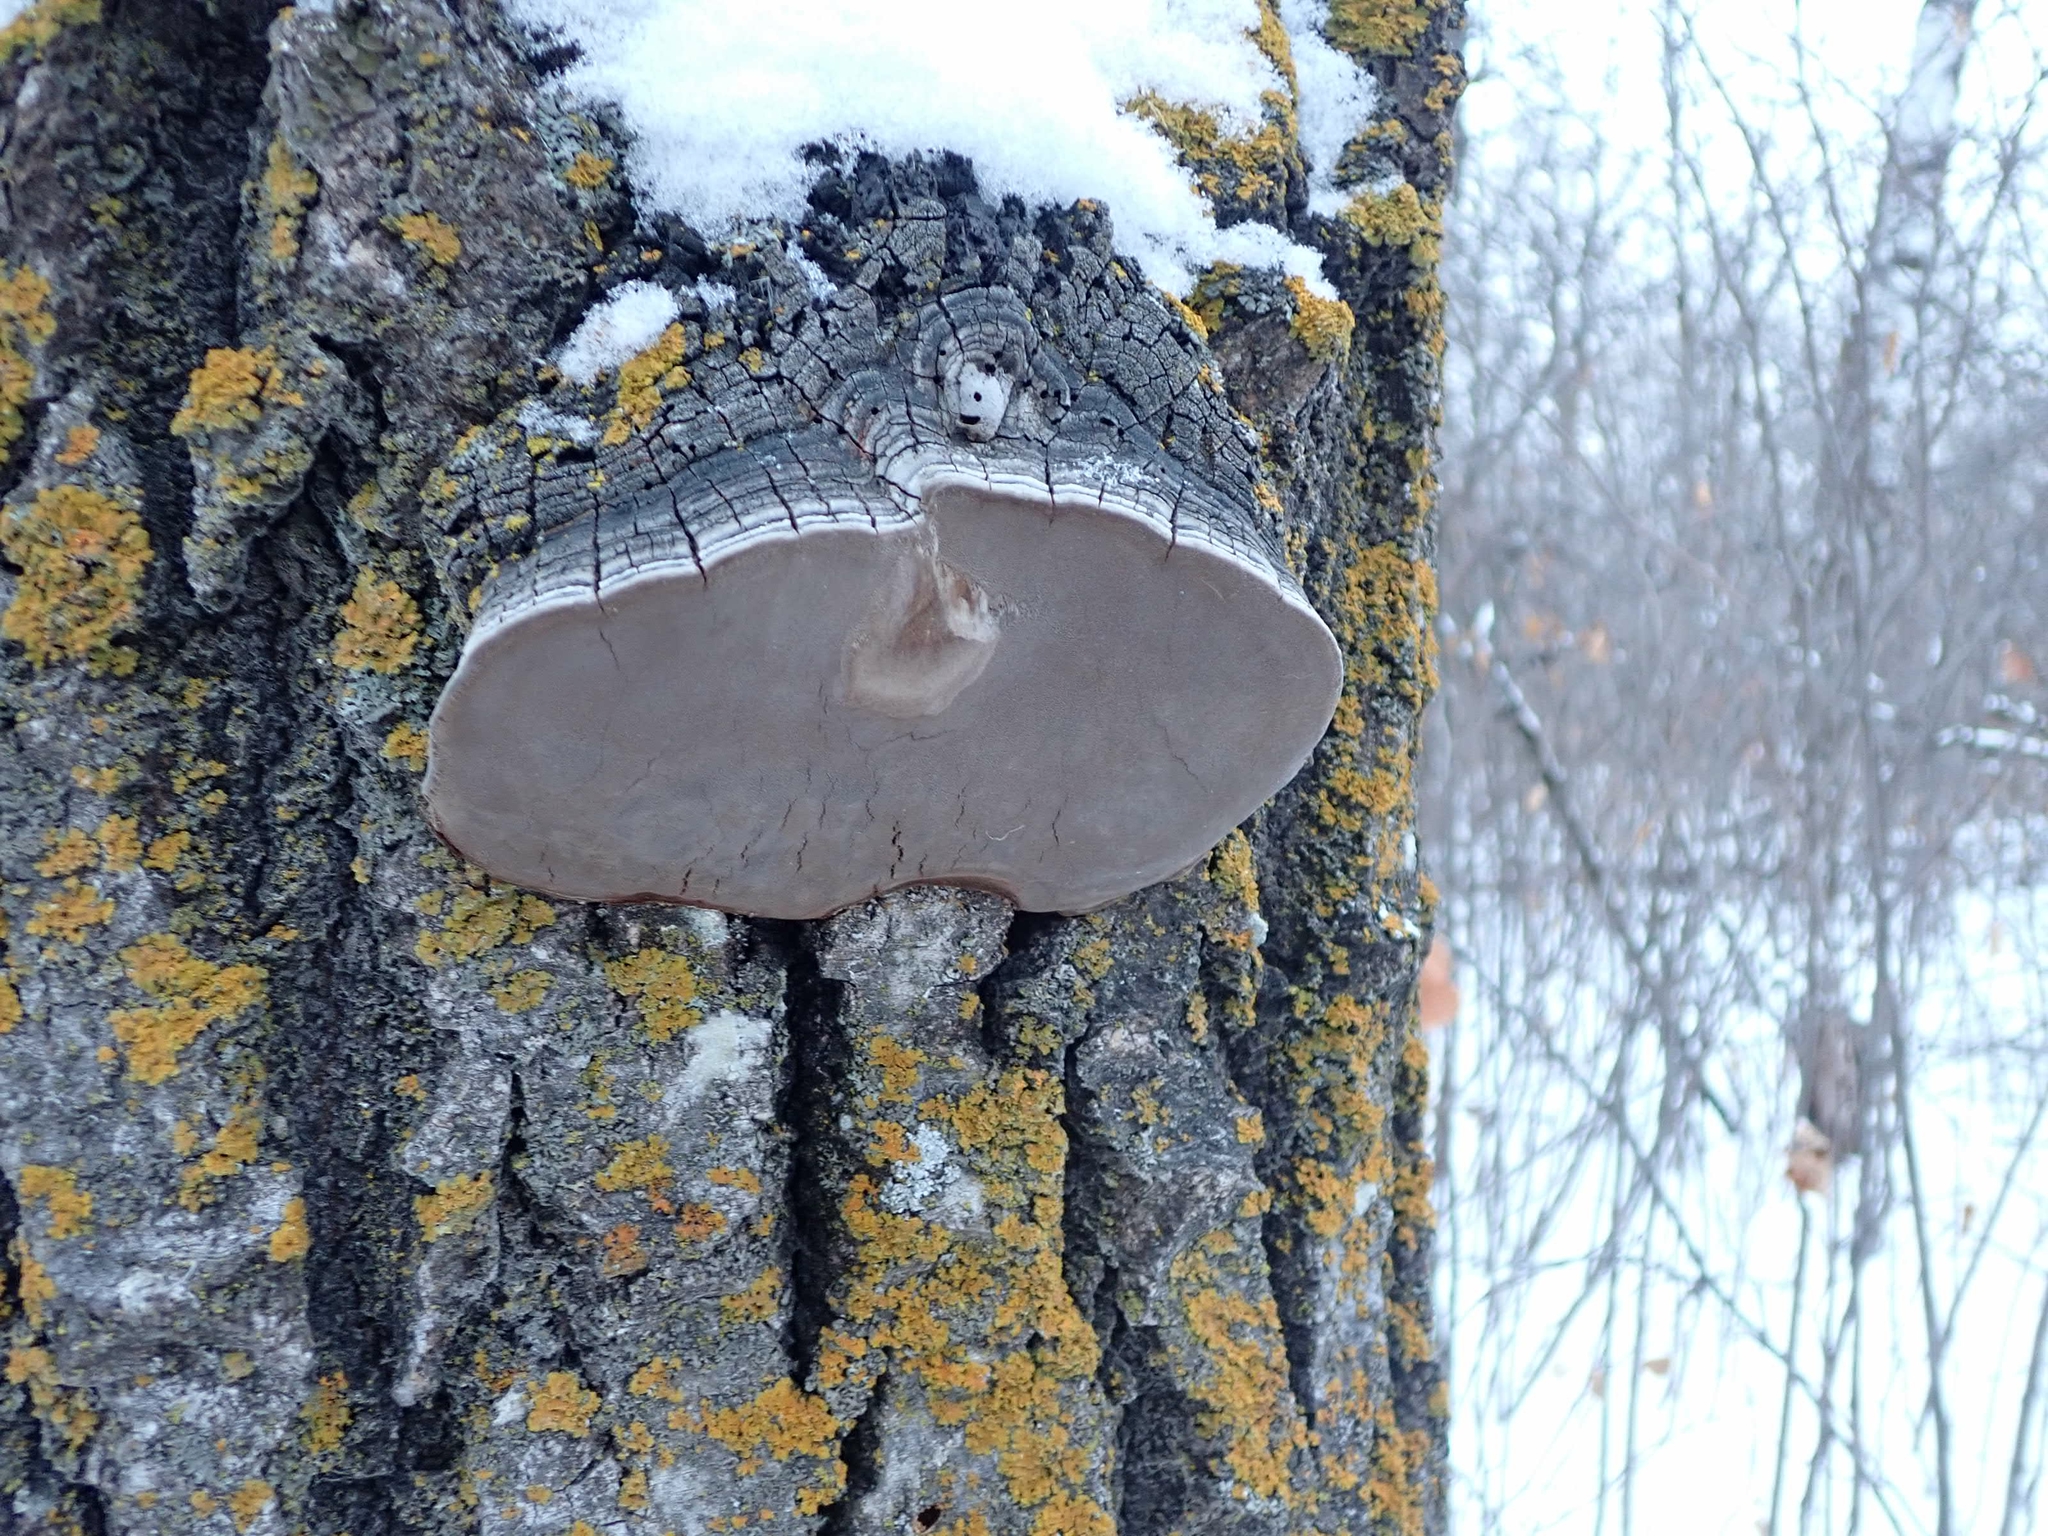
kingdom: Fungi
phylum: Basidiomycota
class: Agaricomycetes
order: Hymenochaetales
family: Hymenochaetaceae
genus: Phellinus
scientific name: Phellinus tremulae
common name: Aspen bracket
